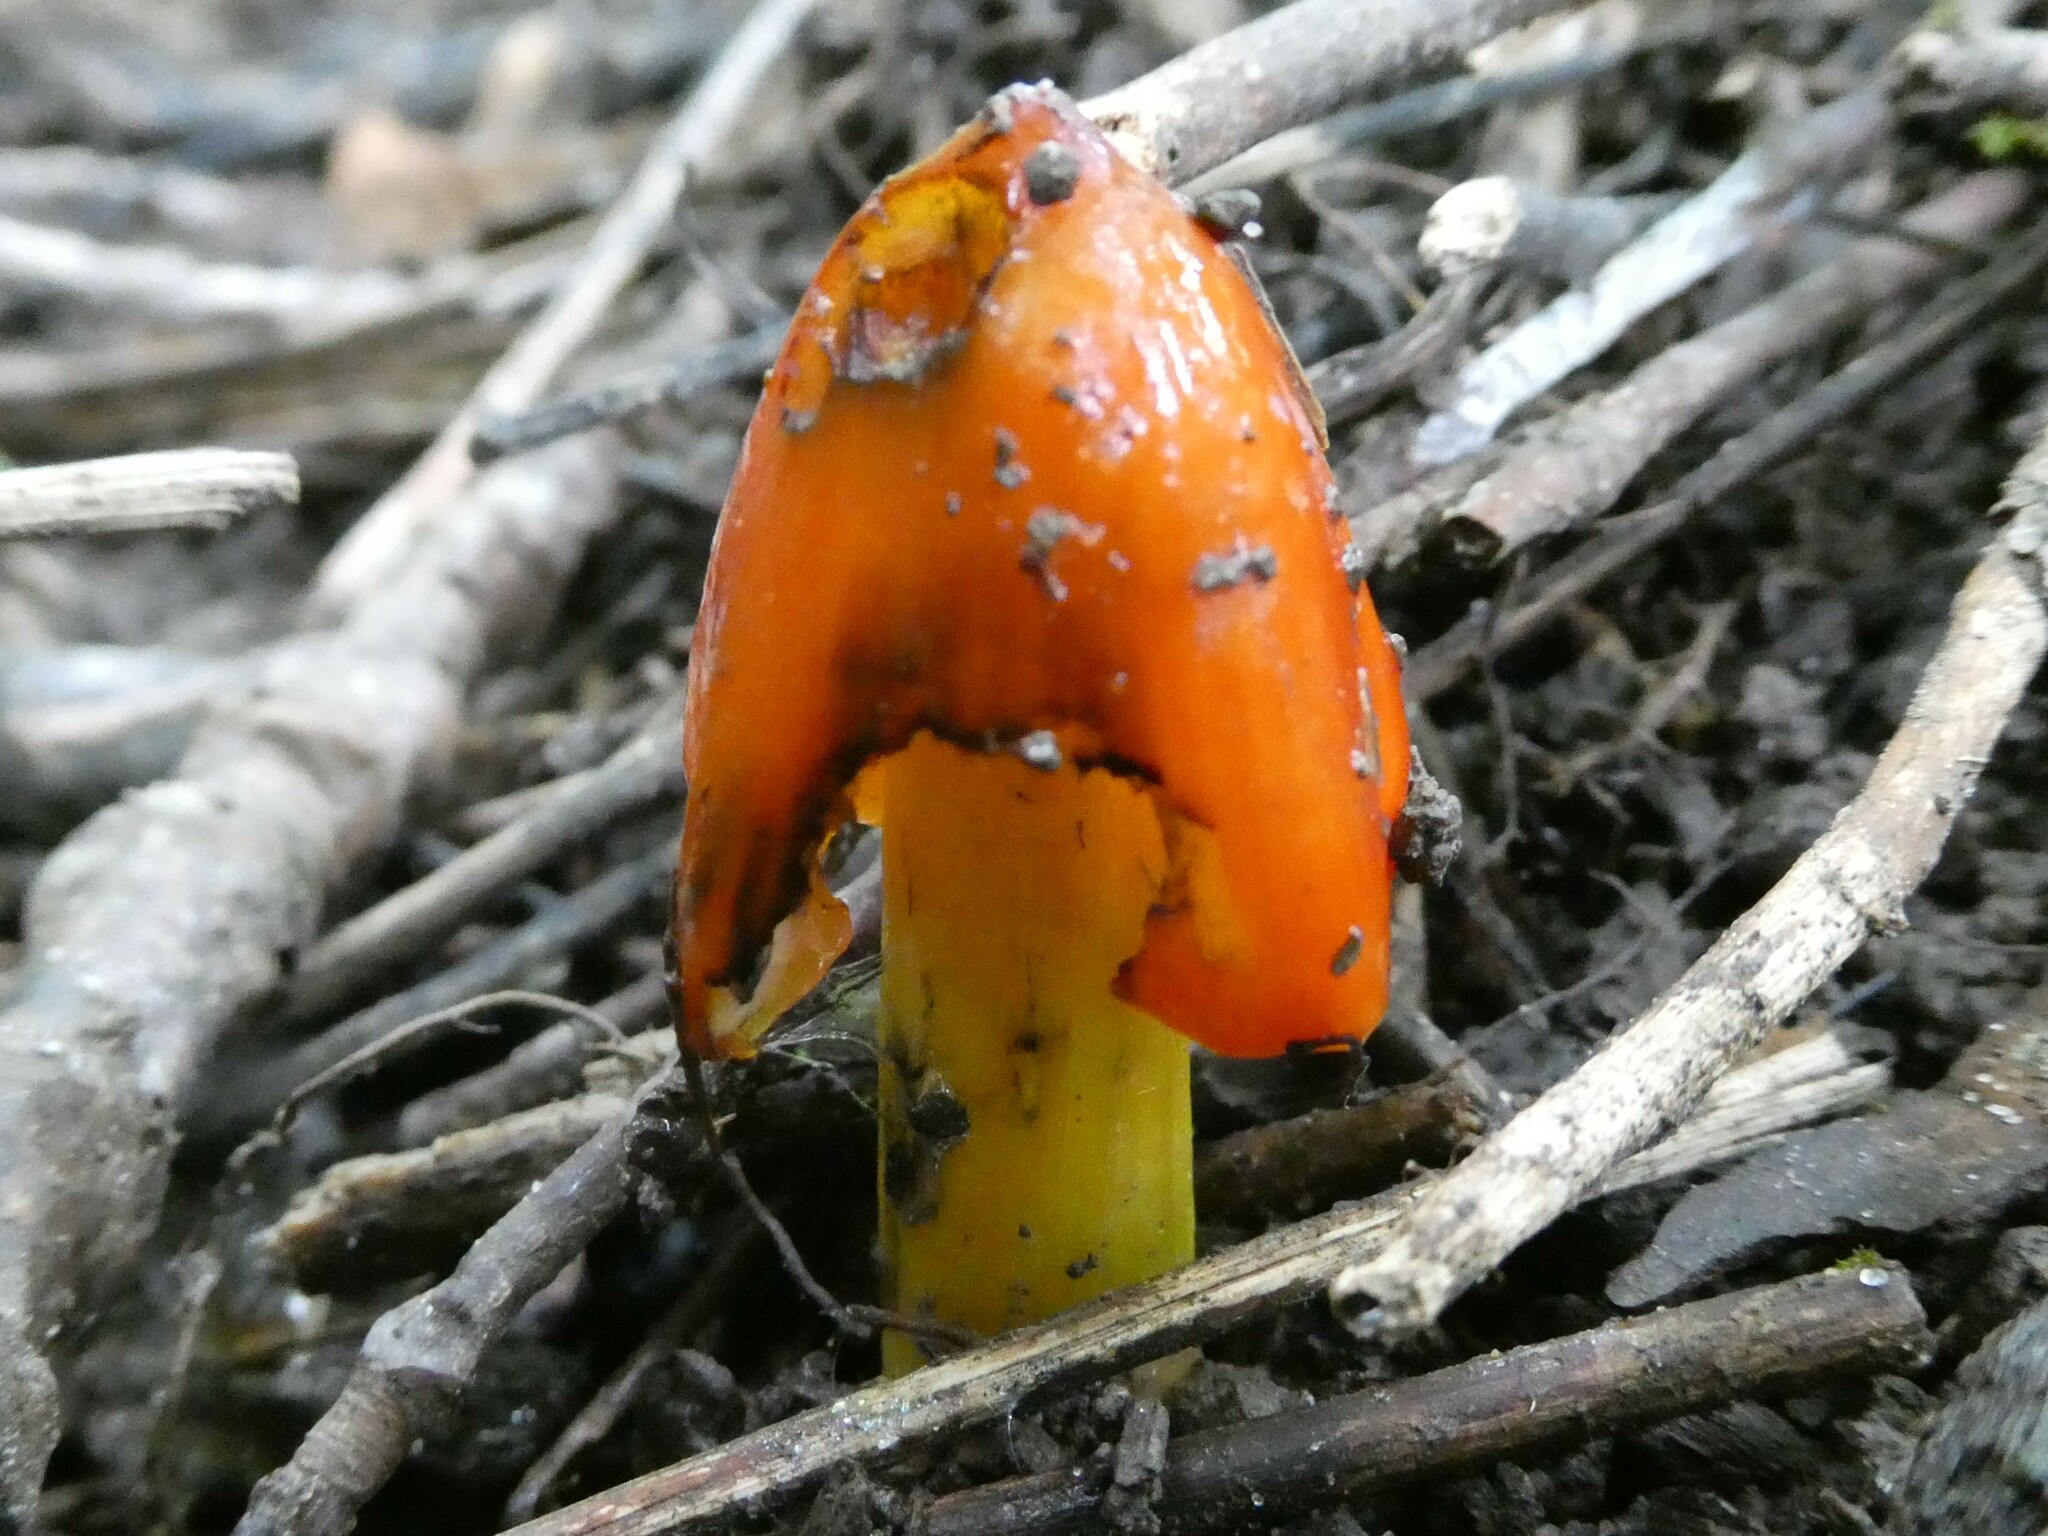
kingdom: Fungi
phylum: Basidiomycota
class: Agaricomycetes
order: Agaricales
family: Hygrophoraceae
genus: Hygrocybe
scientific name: Hygrocybe conica
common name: Blackening wax-cap
